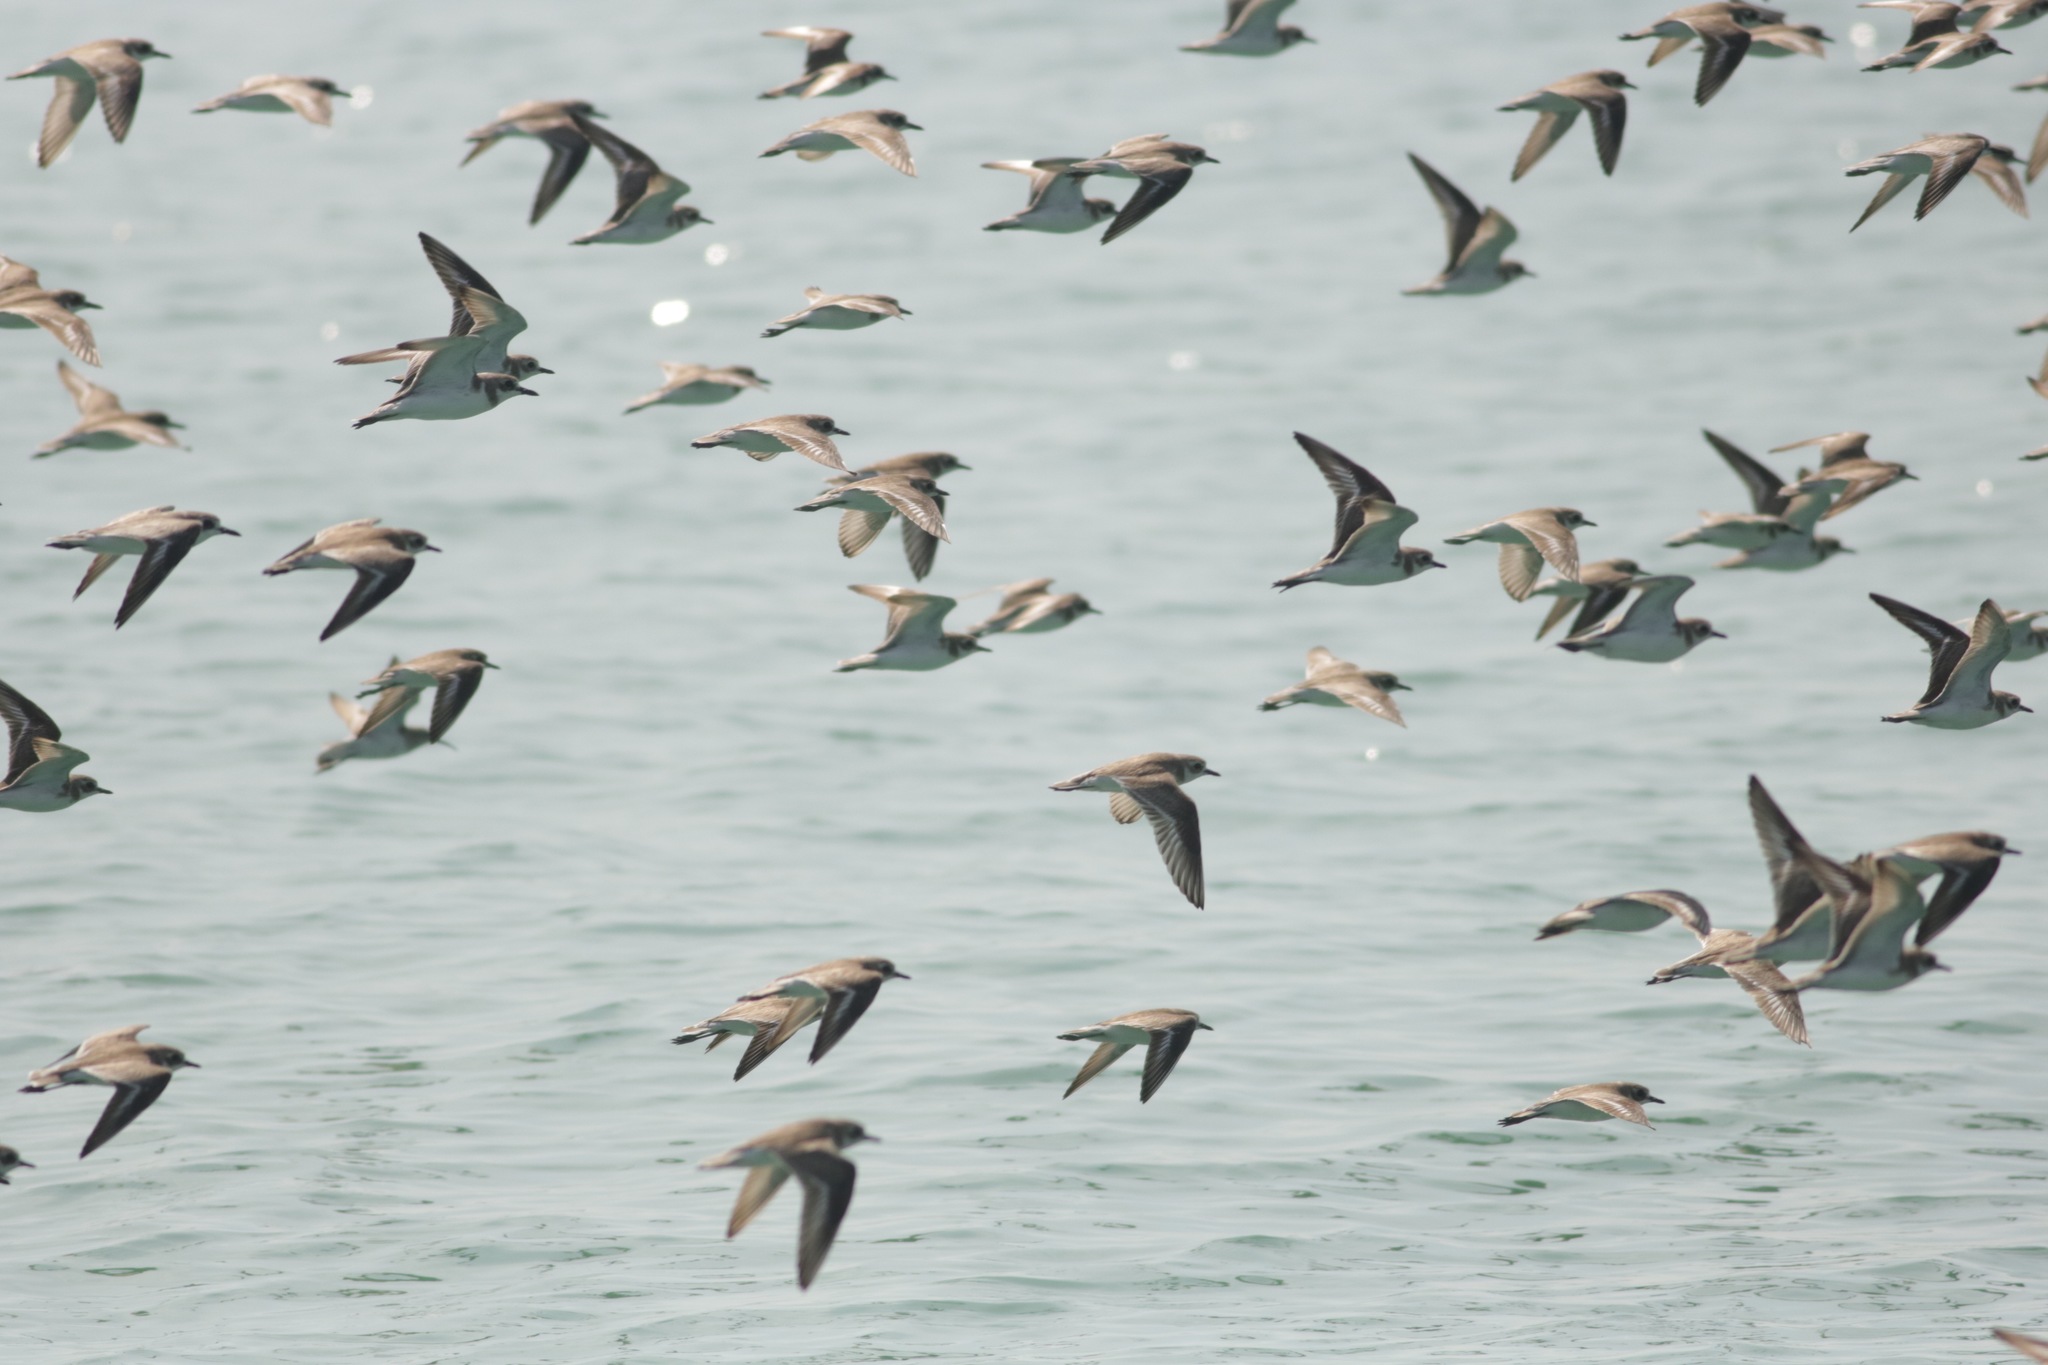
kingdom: Animalia
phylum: Chordata
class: Aves
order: Charadriiformes
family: Charadriidae
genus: Charadrius
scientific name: Charadrius leschenaultii
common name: Greater sand plover
